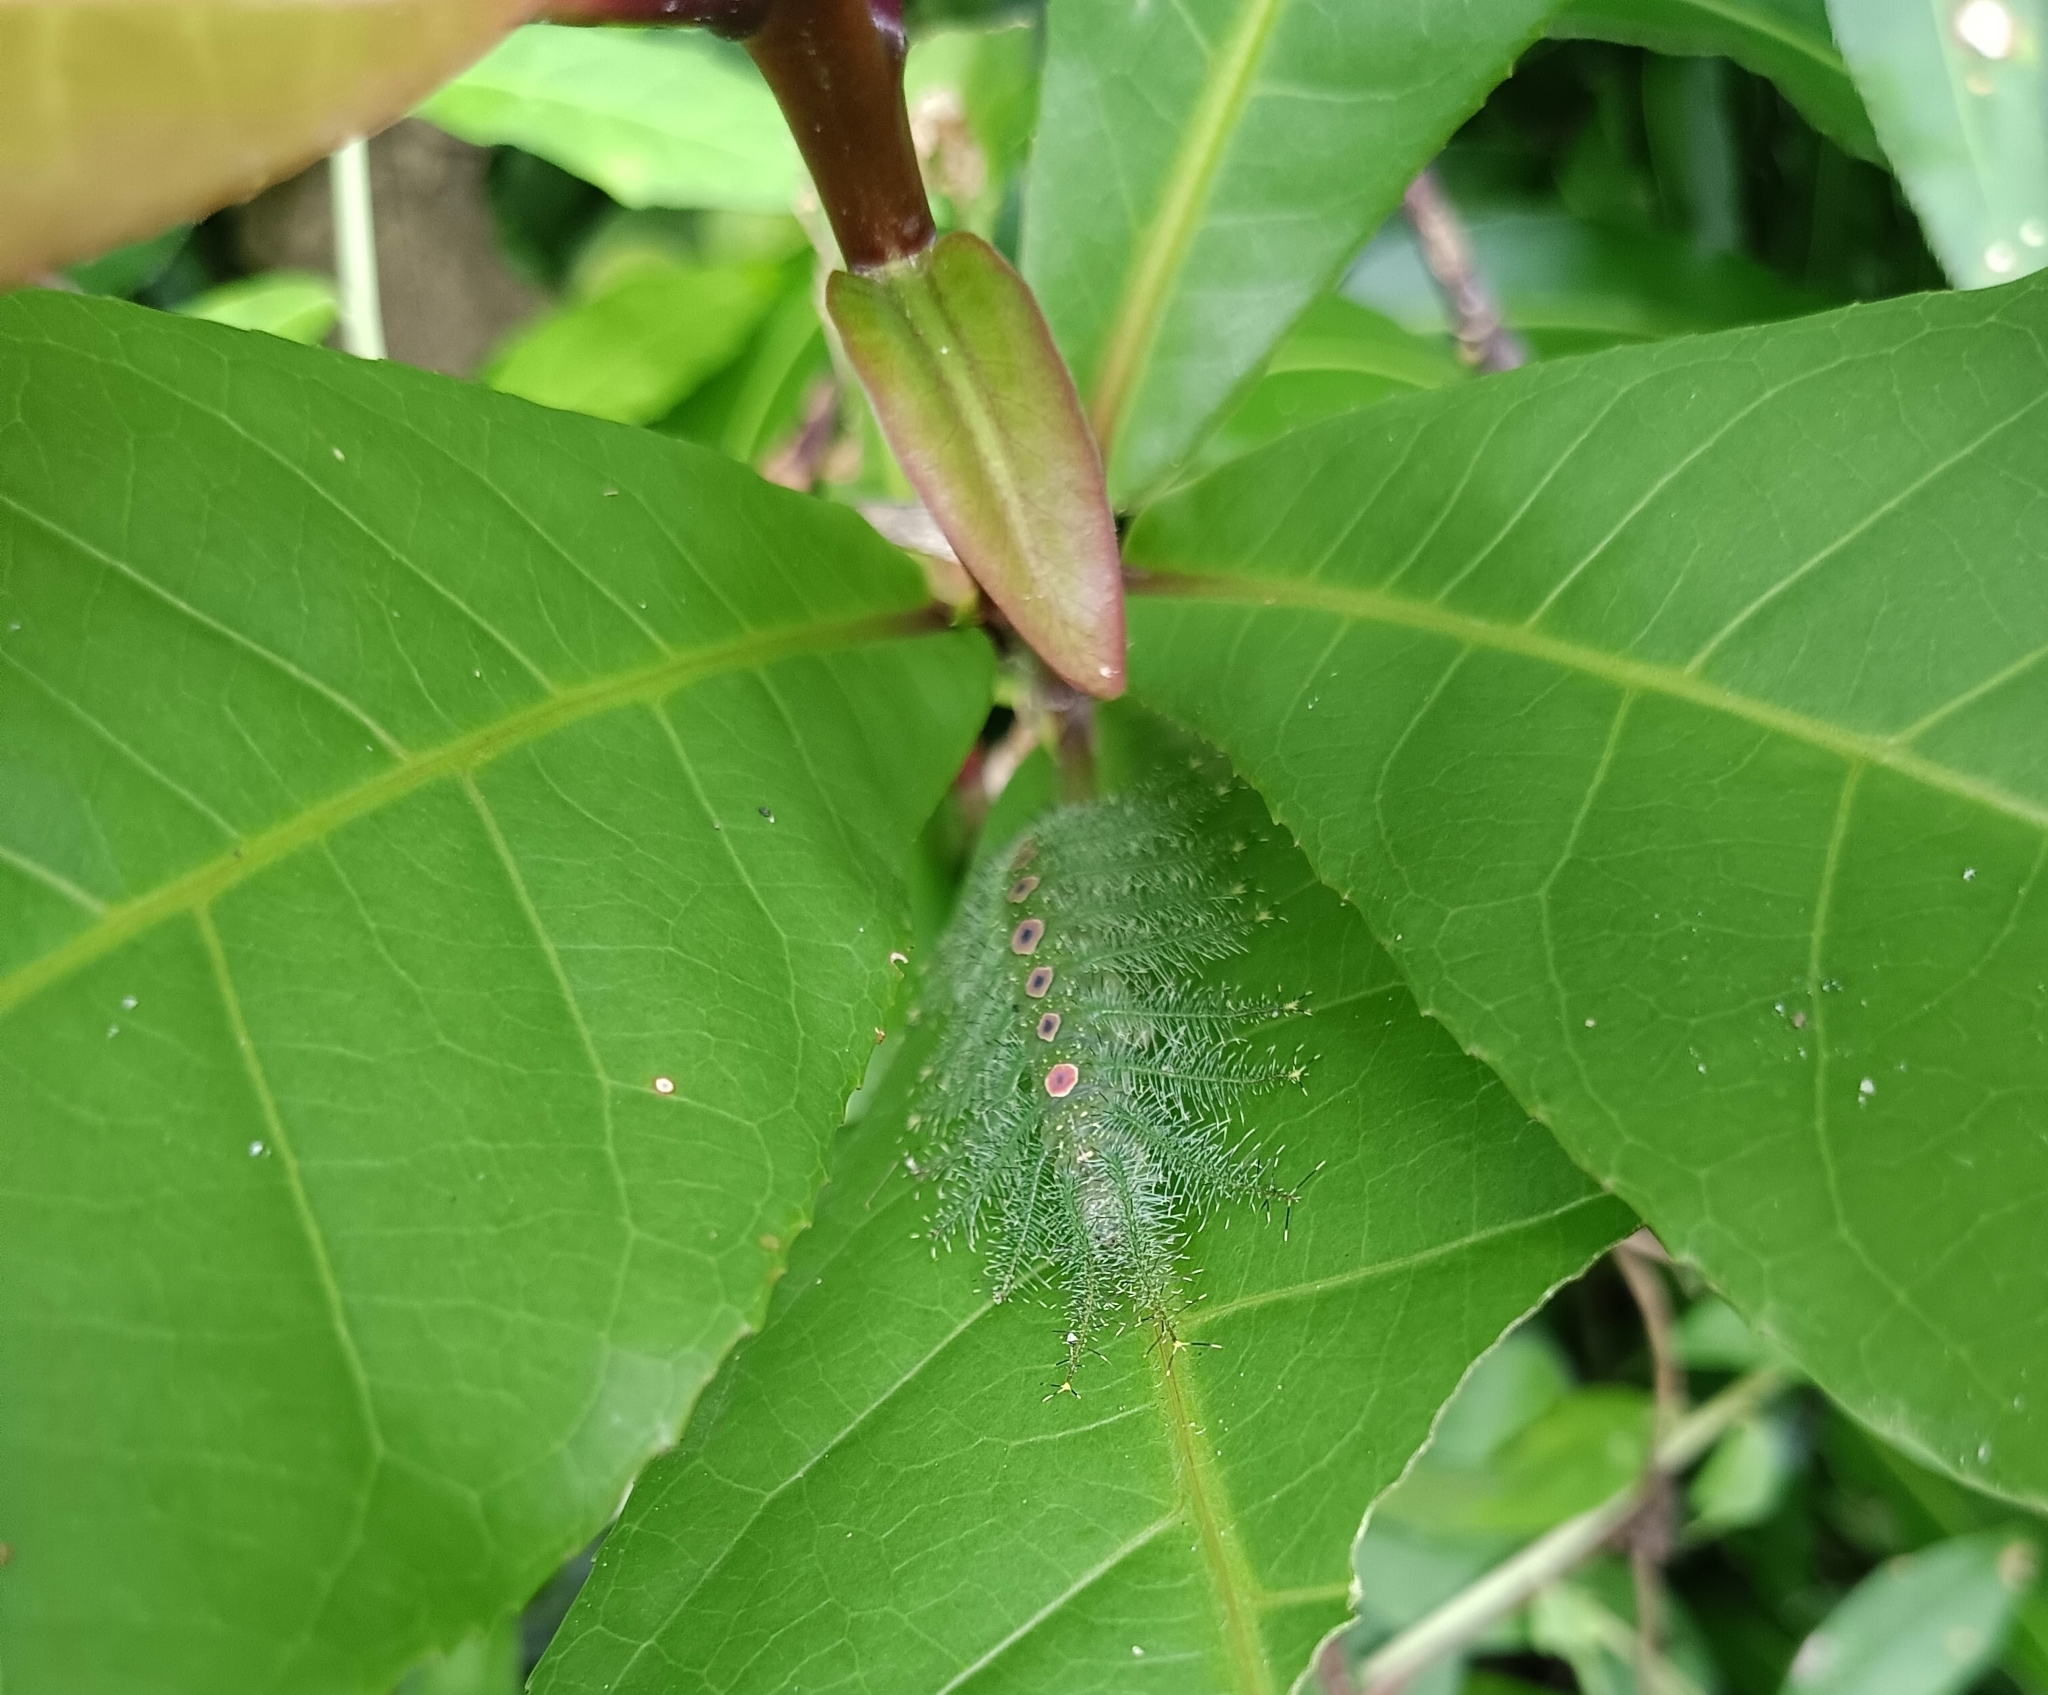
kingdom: Animalia
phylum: Arthropoda
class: Insecta
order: Lepidoptera
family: Nymphalidae
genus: Tanaecia
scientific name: Tanaecia lepidea
